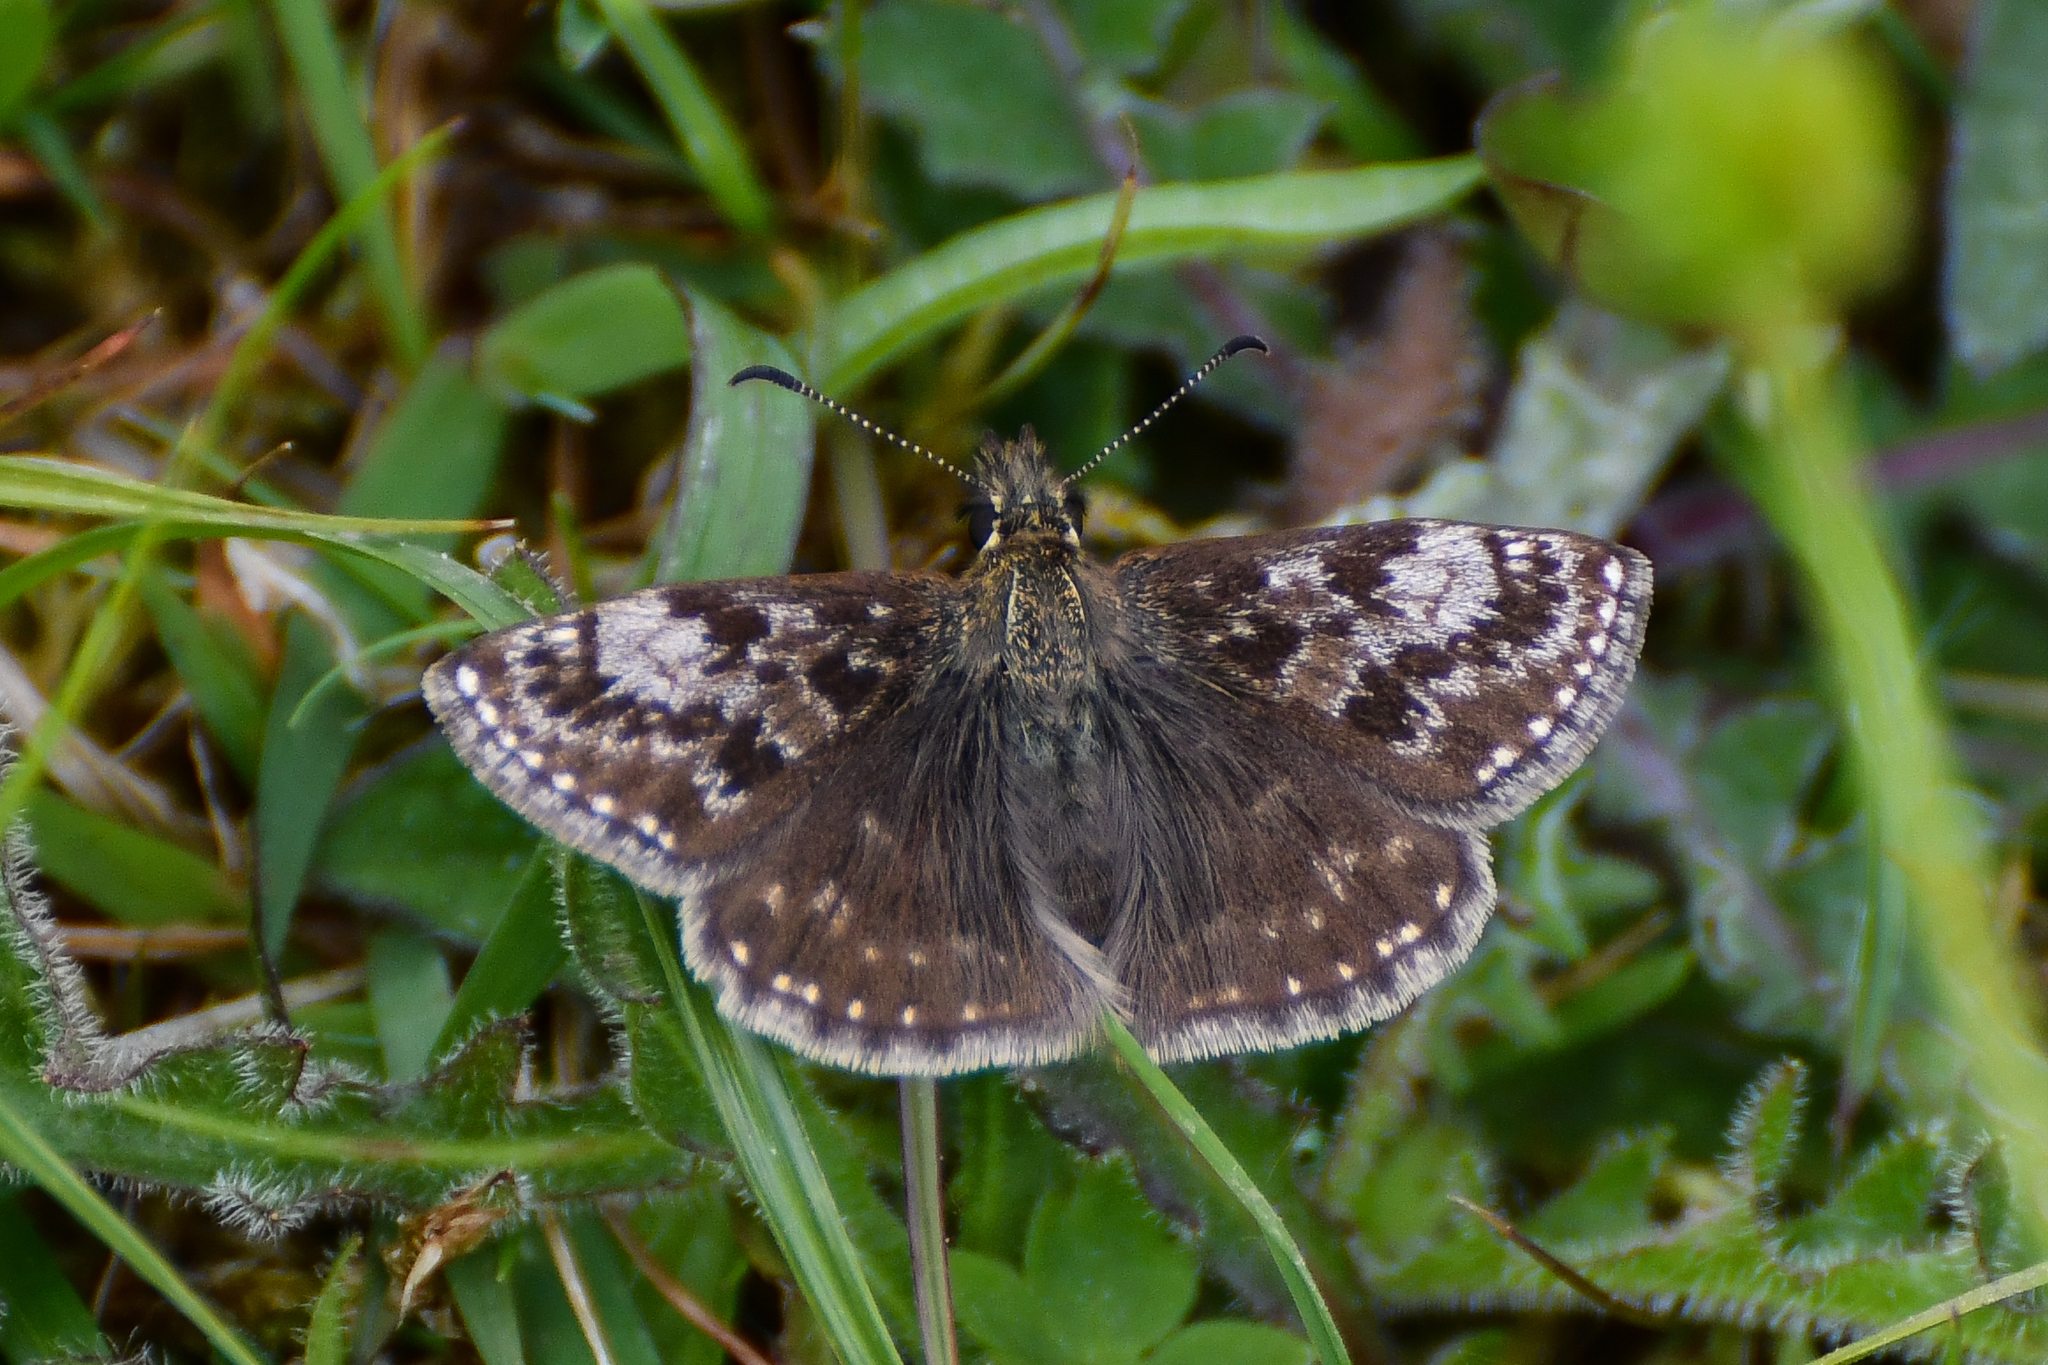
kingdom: Animalia
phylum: Arthropoda
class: Insecta
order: Lepidoptera
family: Hesperiidae
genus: Erynnis
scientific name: Erynnis tages
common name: Dingy skipper
